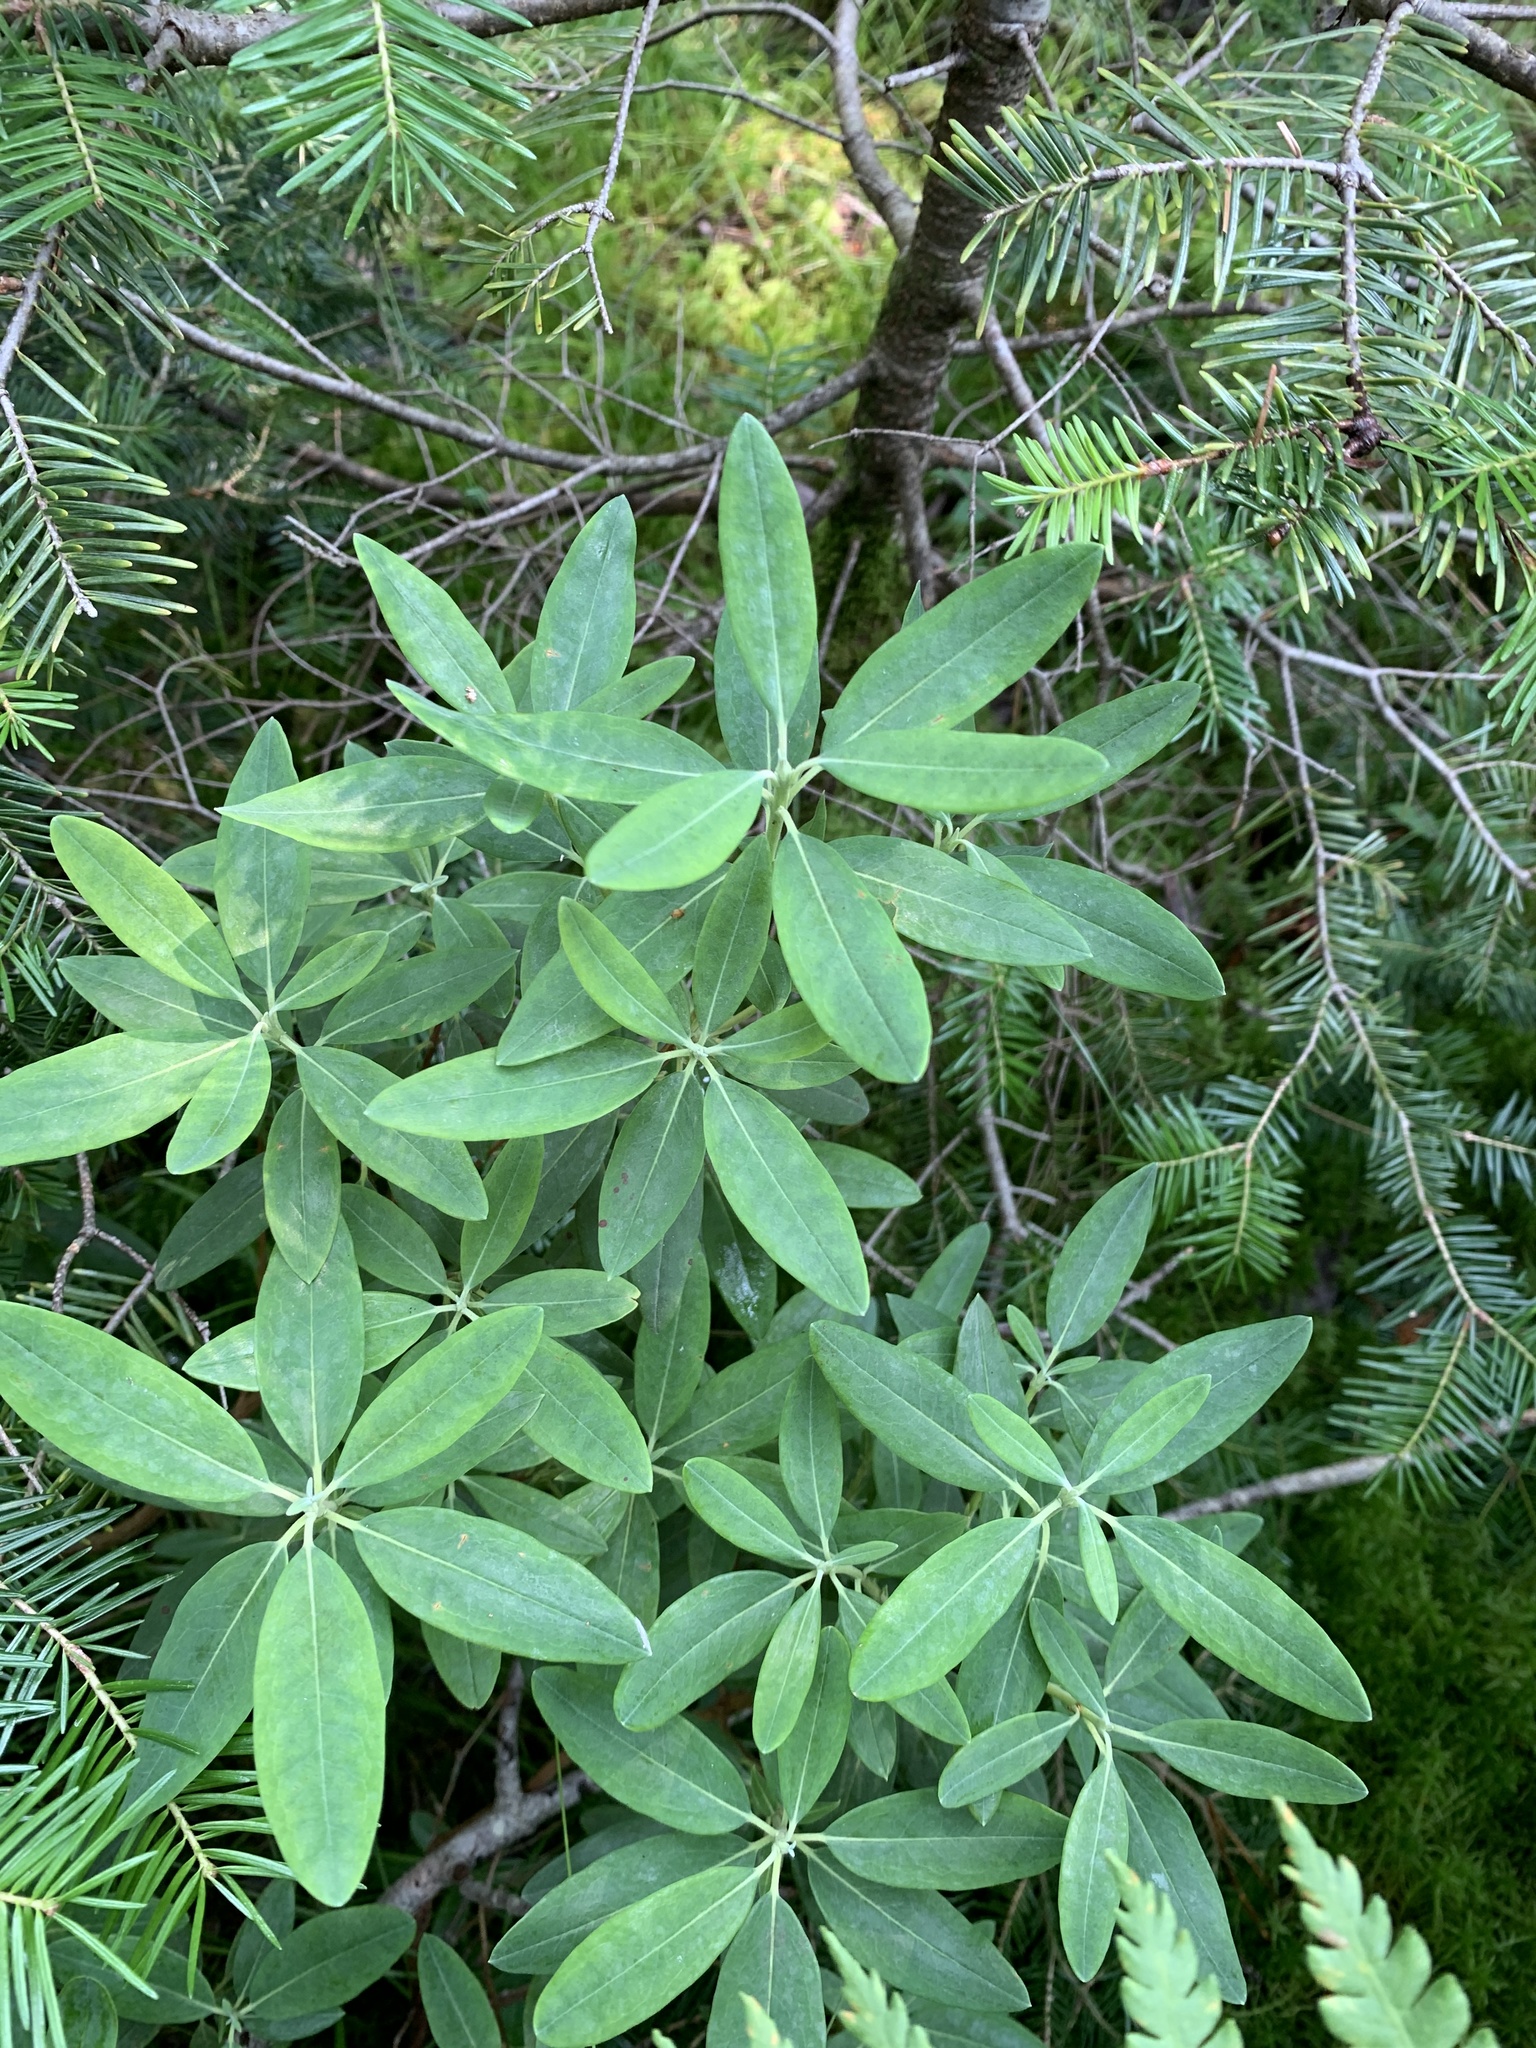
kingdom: Plantae
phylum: Tracheophyta
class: Magnoliopsida
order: Ericales
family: Ericaceae
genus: Kalmia
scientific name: Kalmia angustifolia
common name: Sheep-laurel
